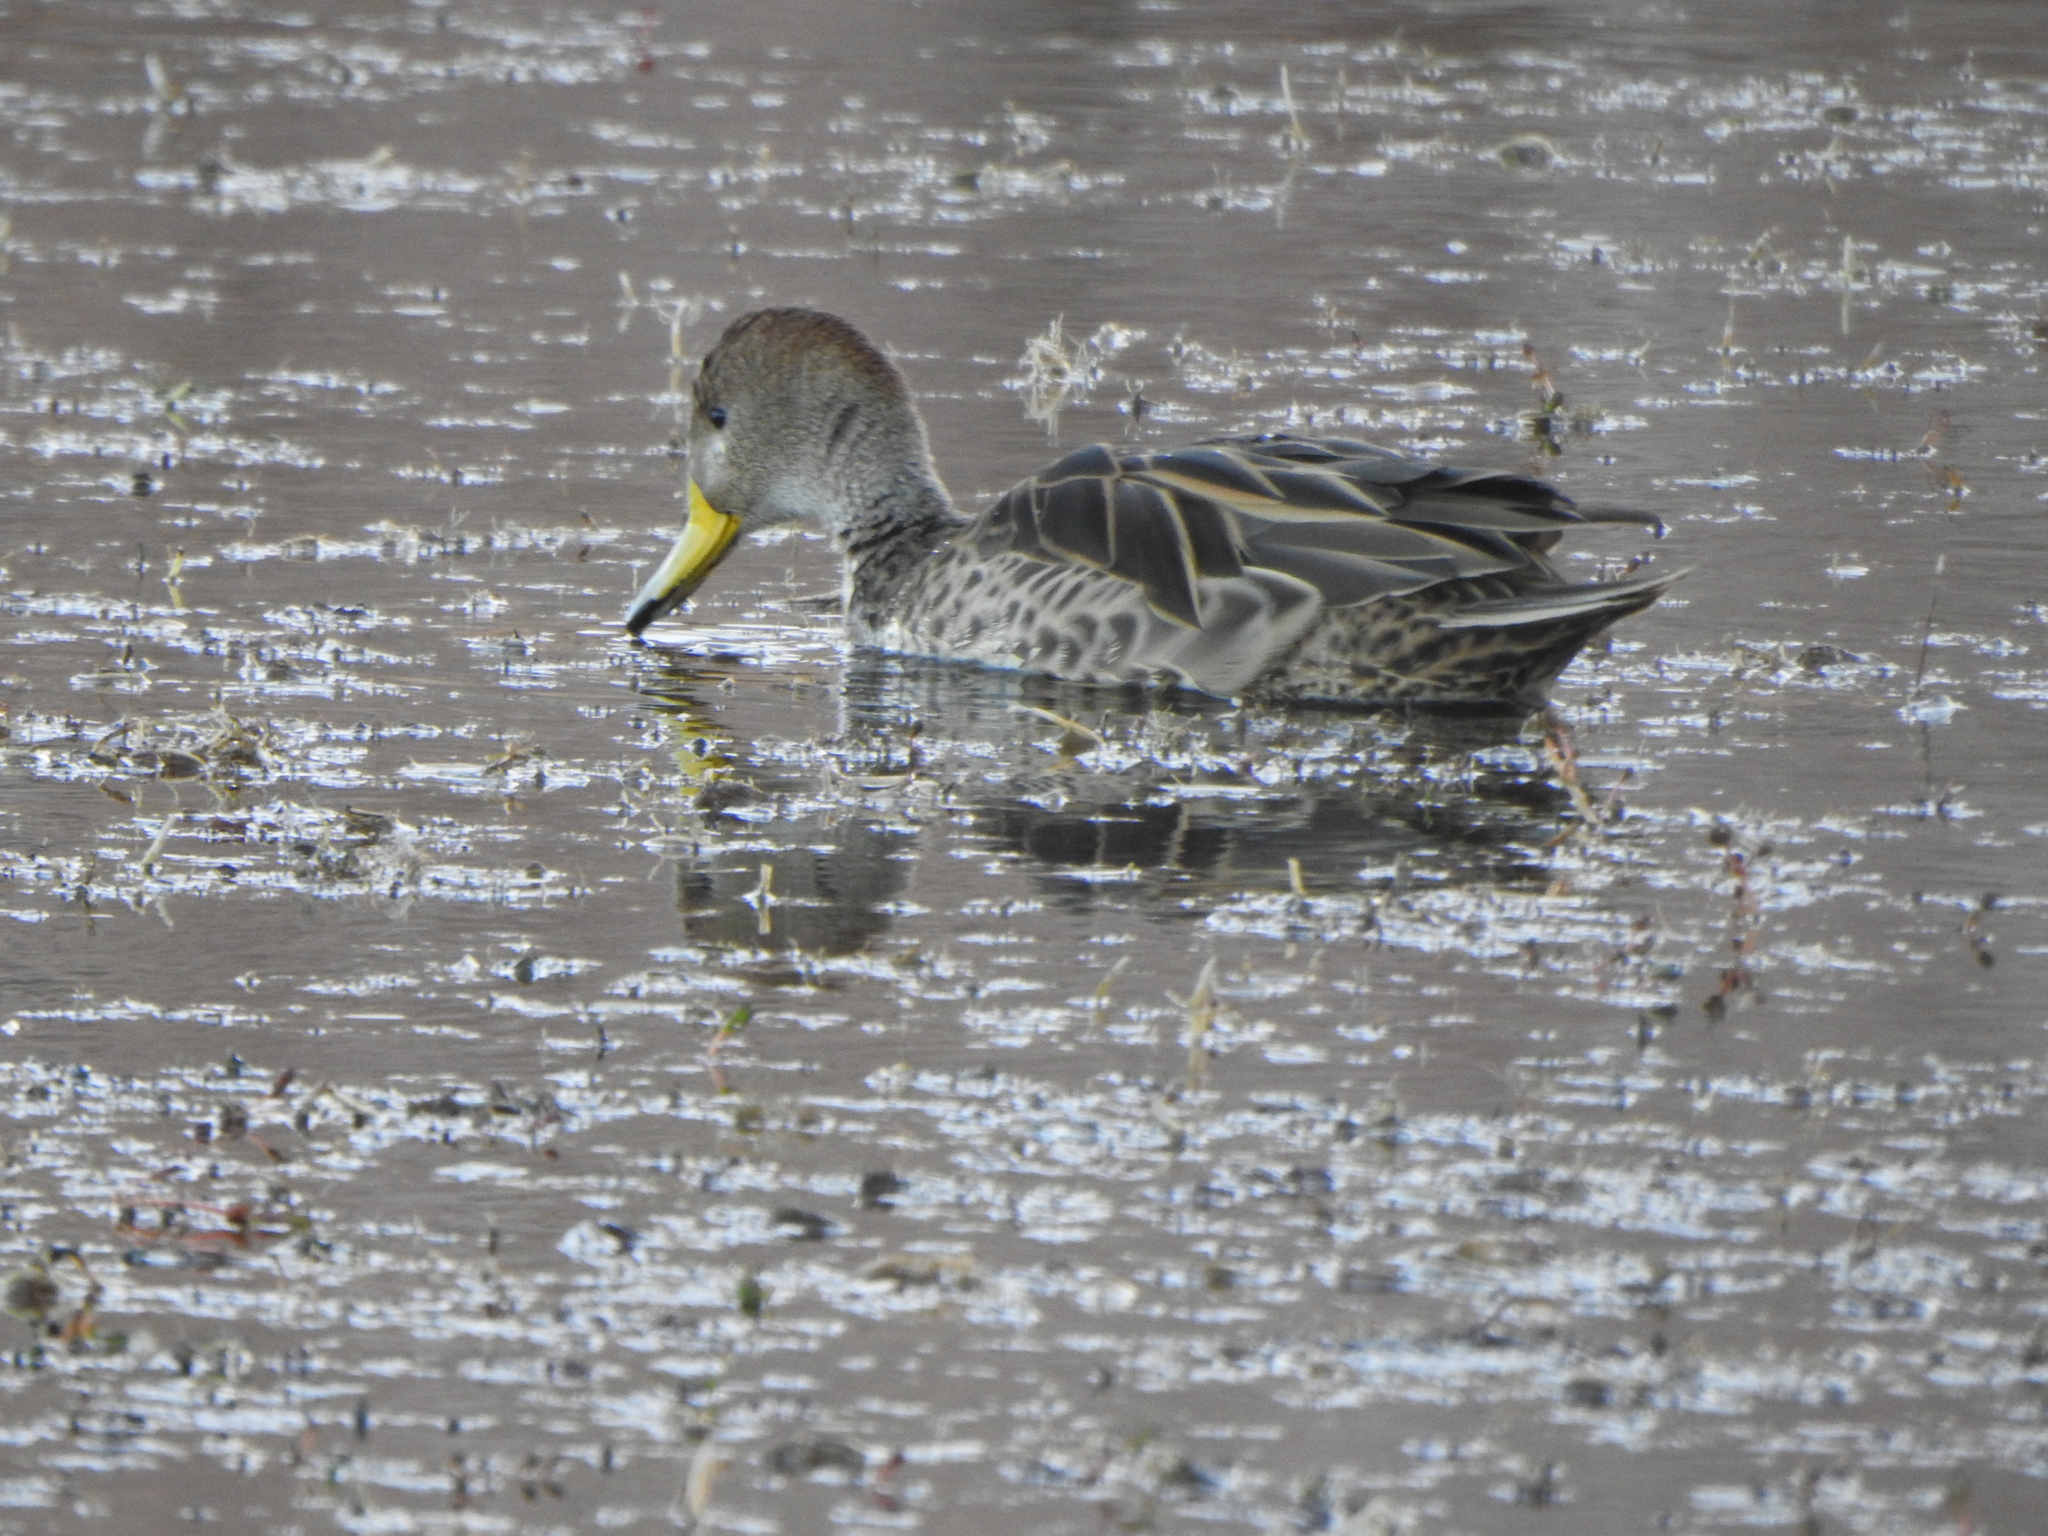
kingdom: Animalia
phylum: Chordata
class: Aves
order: Anseriformes
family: Anatidae
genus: Anas
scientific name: Anas georgica
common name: Yellow-billed pintail
